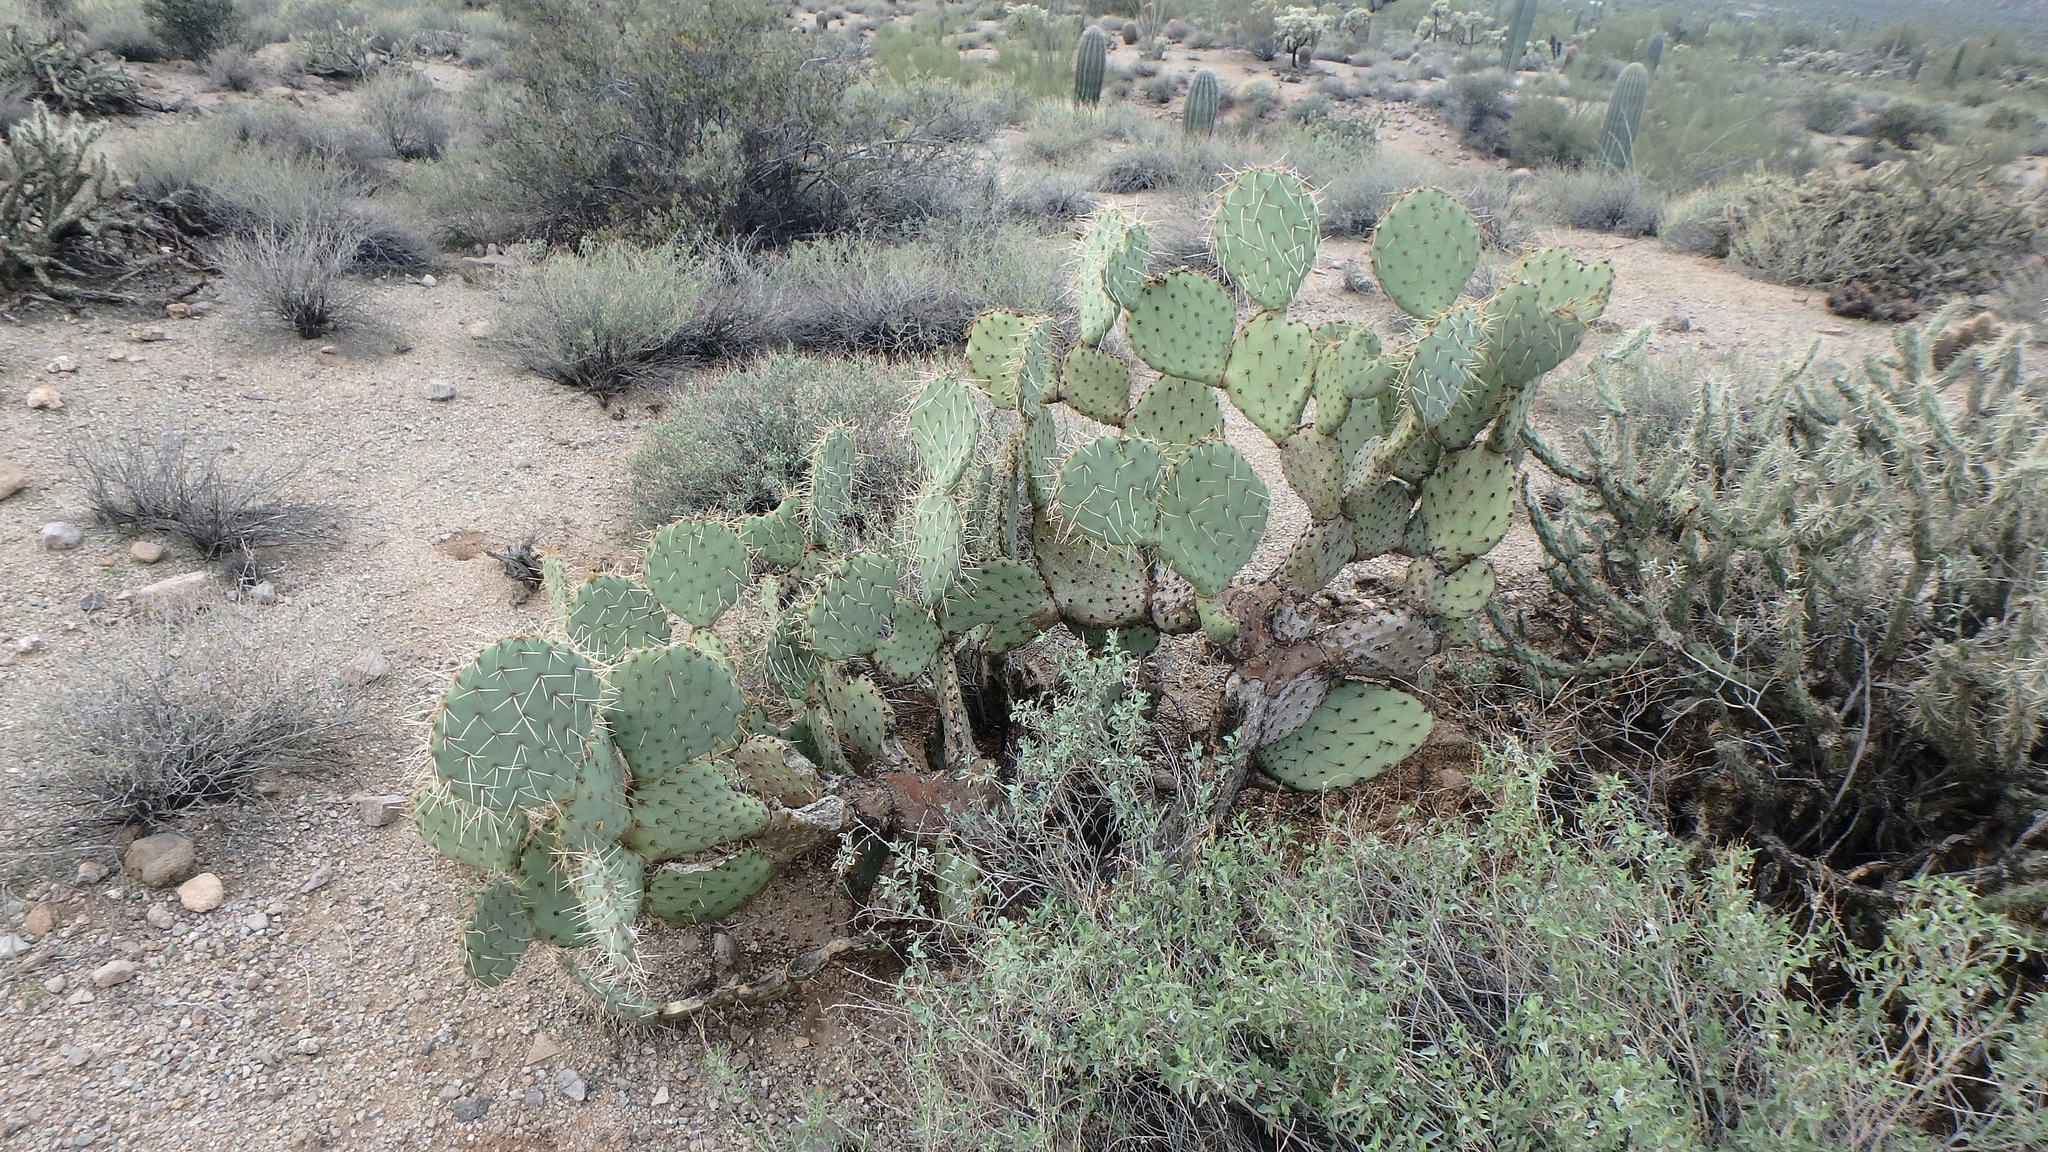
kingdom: Plantae
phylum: Tracheophyta
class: Magnoliopsida
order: Caryophyllales
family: Cactaceae
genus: Opuntia
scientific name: Opuntia engelmannii
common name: Cactus-apple
